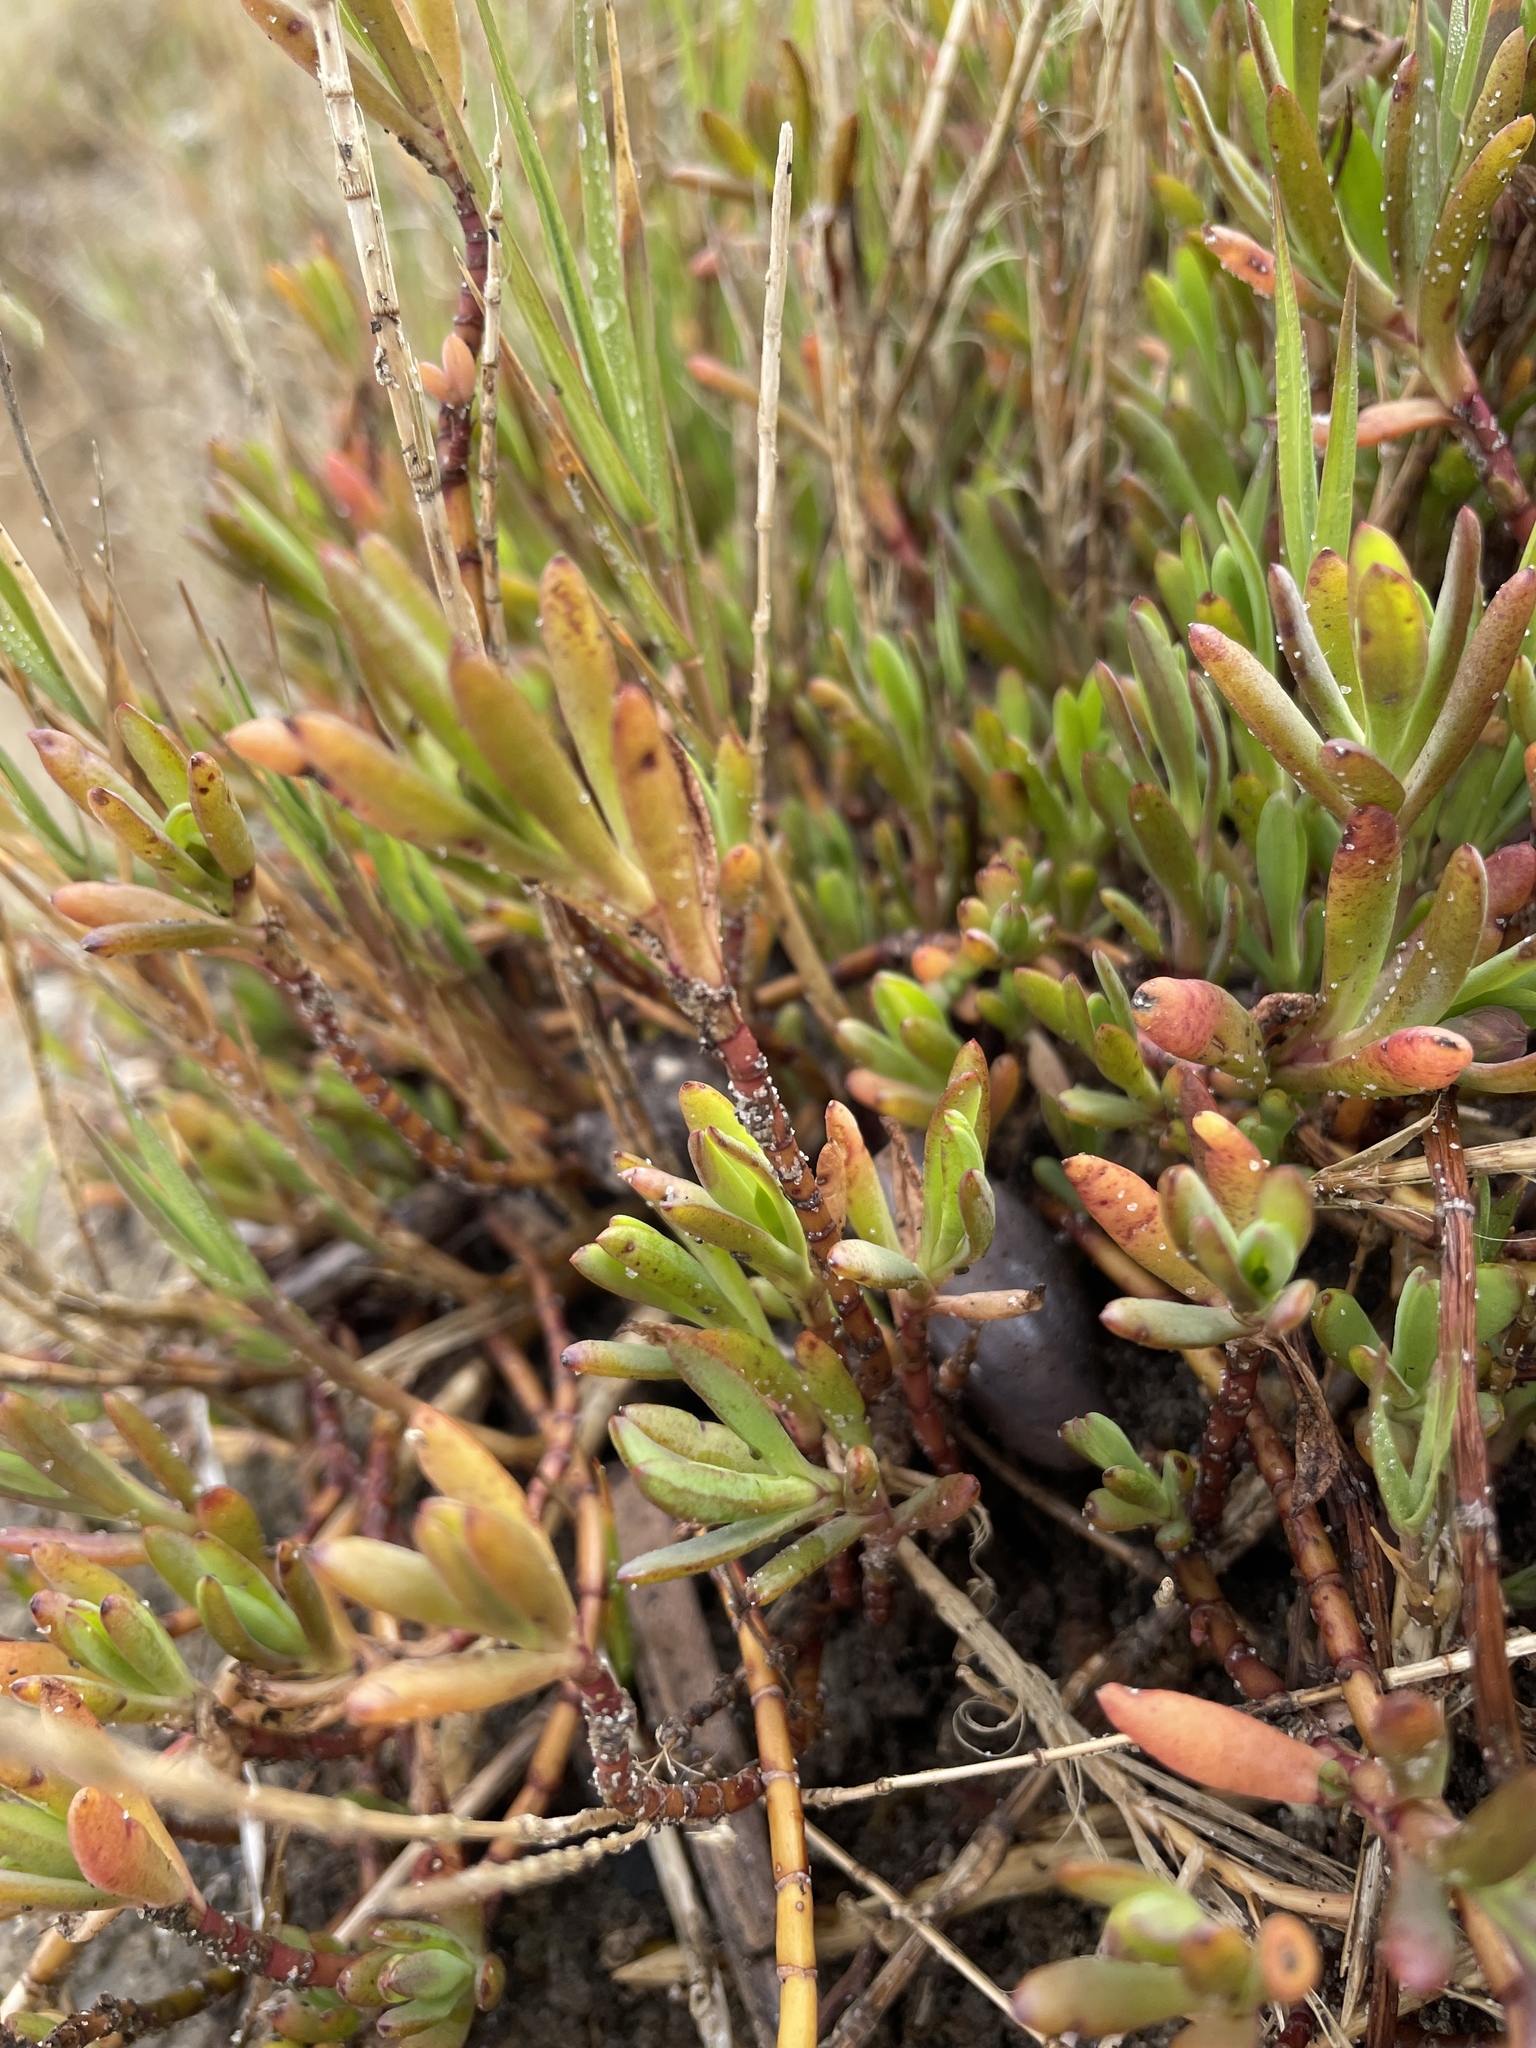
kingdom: Plantae
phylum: Tracheophyta
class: Magnoliopsida
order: Asterales
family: Asteraceae
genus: Jaumea
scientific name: Jaumea carnosa
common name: Fleshy jaumea
